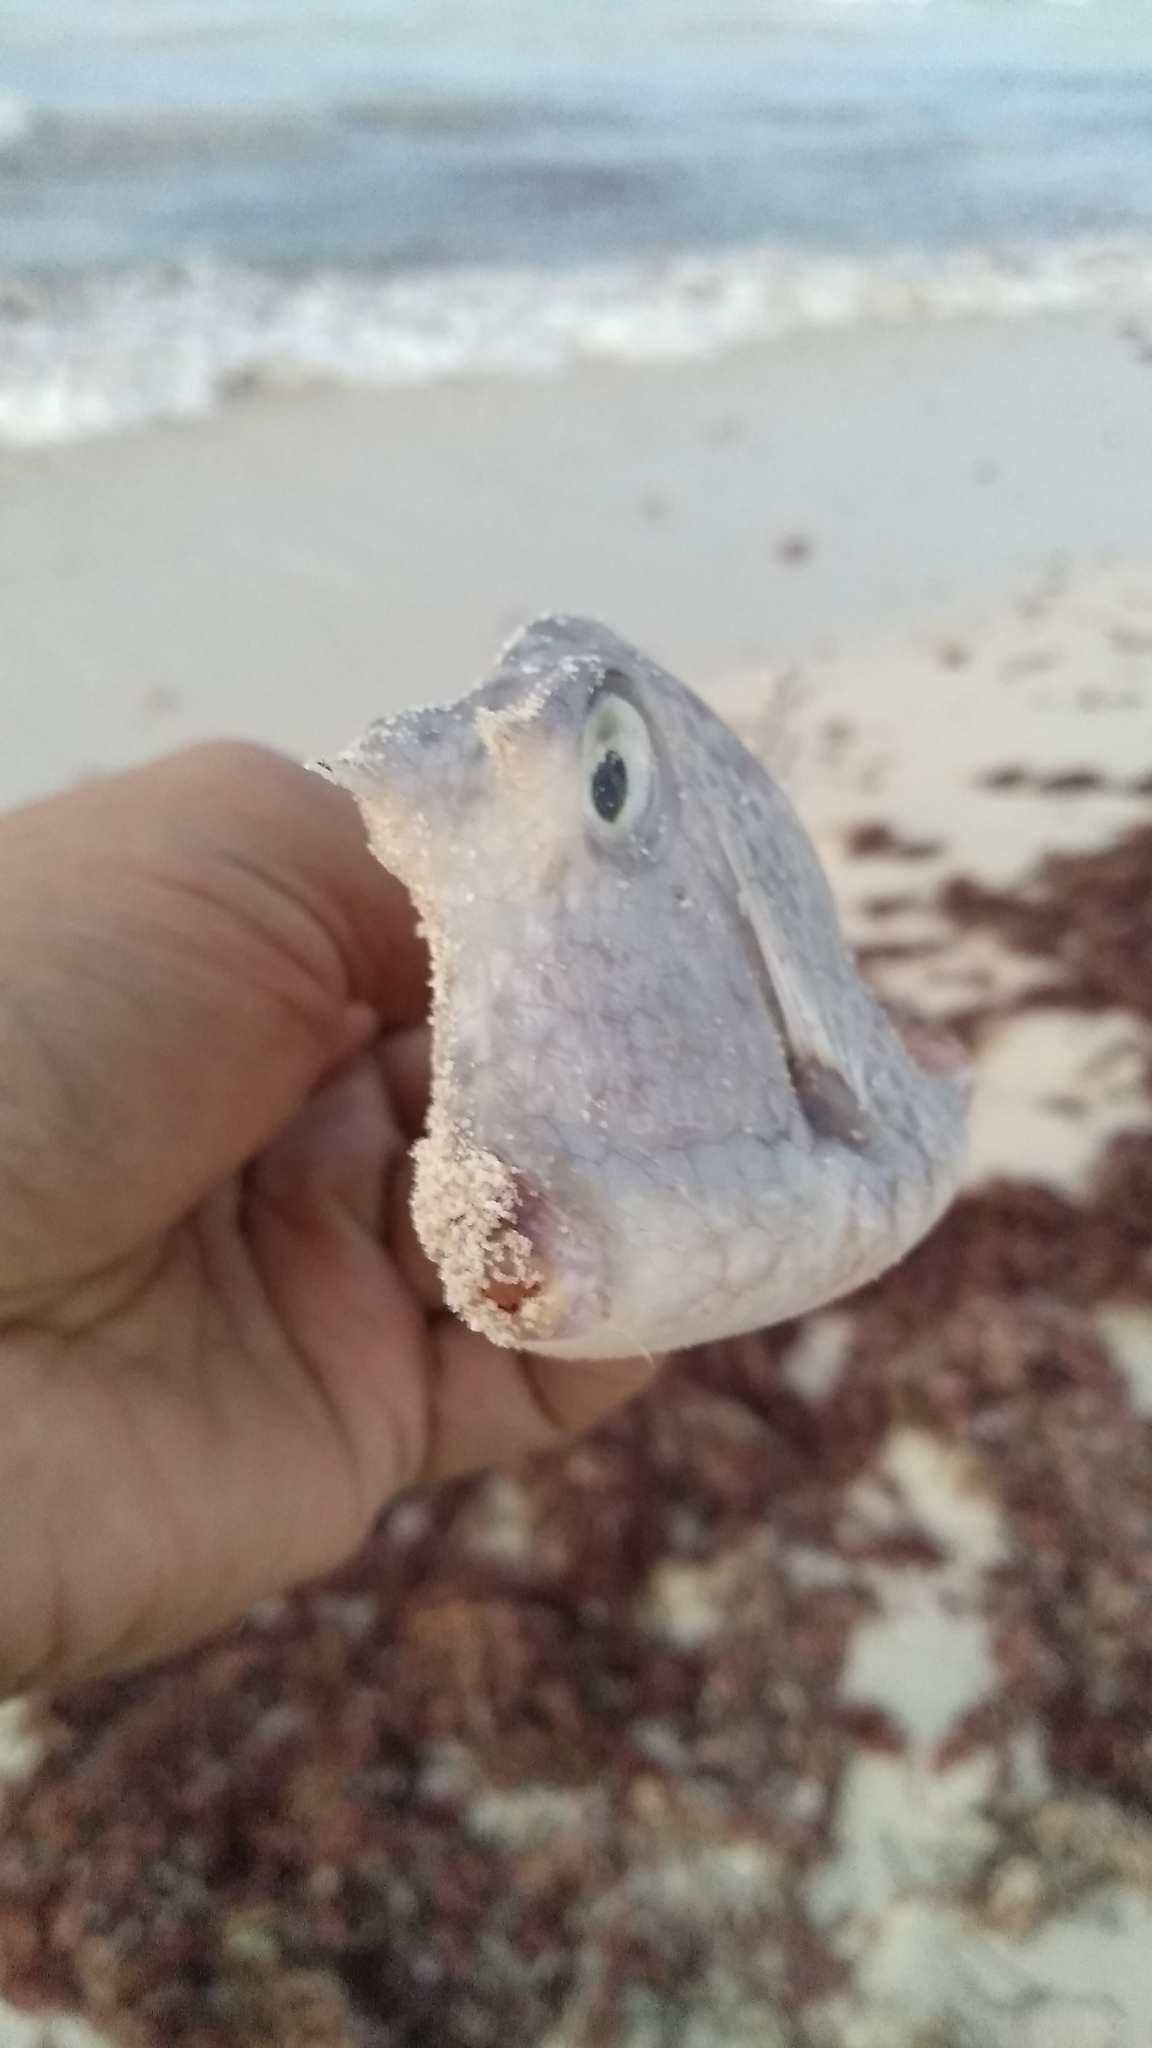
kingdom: Animalia
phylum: Chordata
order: Tetraodontiformes
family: Ostraciidae
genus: Acanthostracion
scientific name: Acanthostracion quadricornis
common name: Scrawled cowfish
